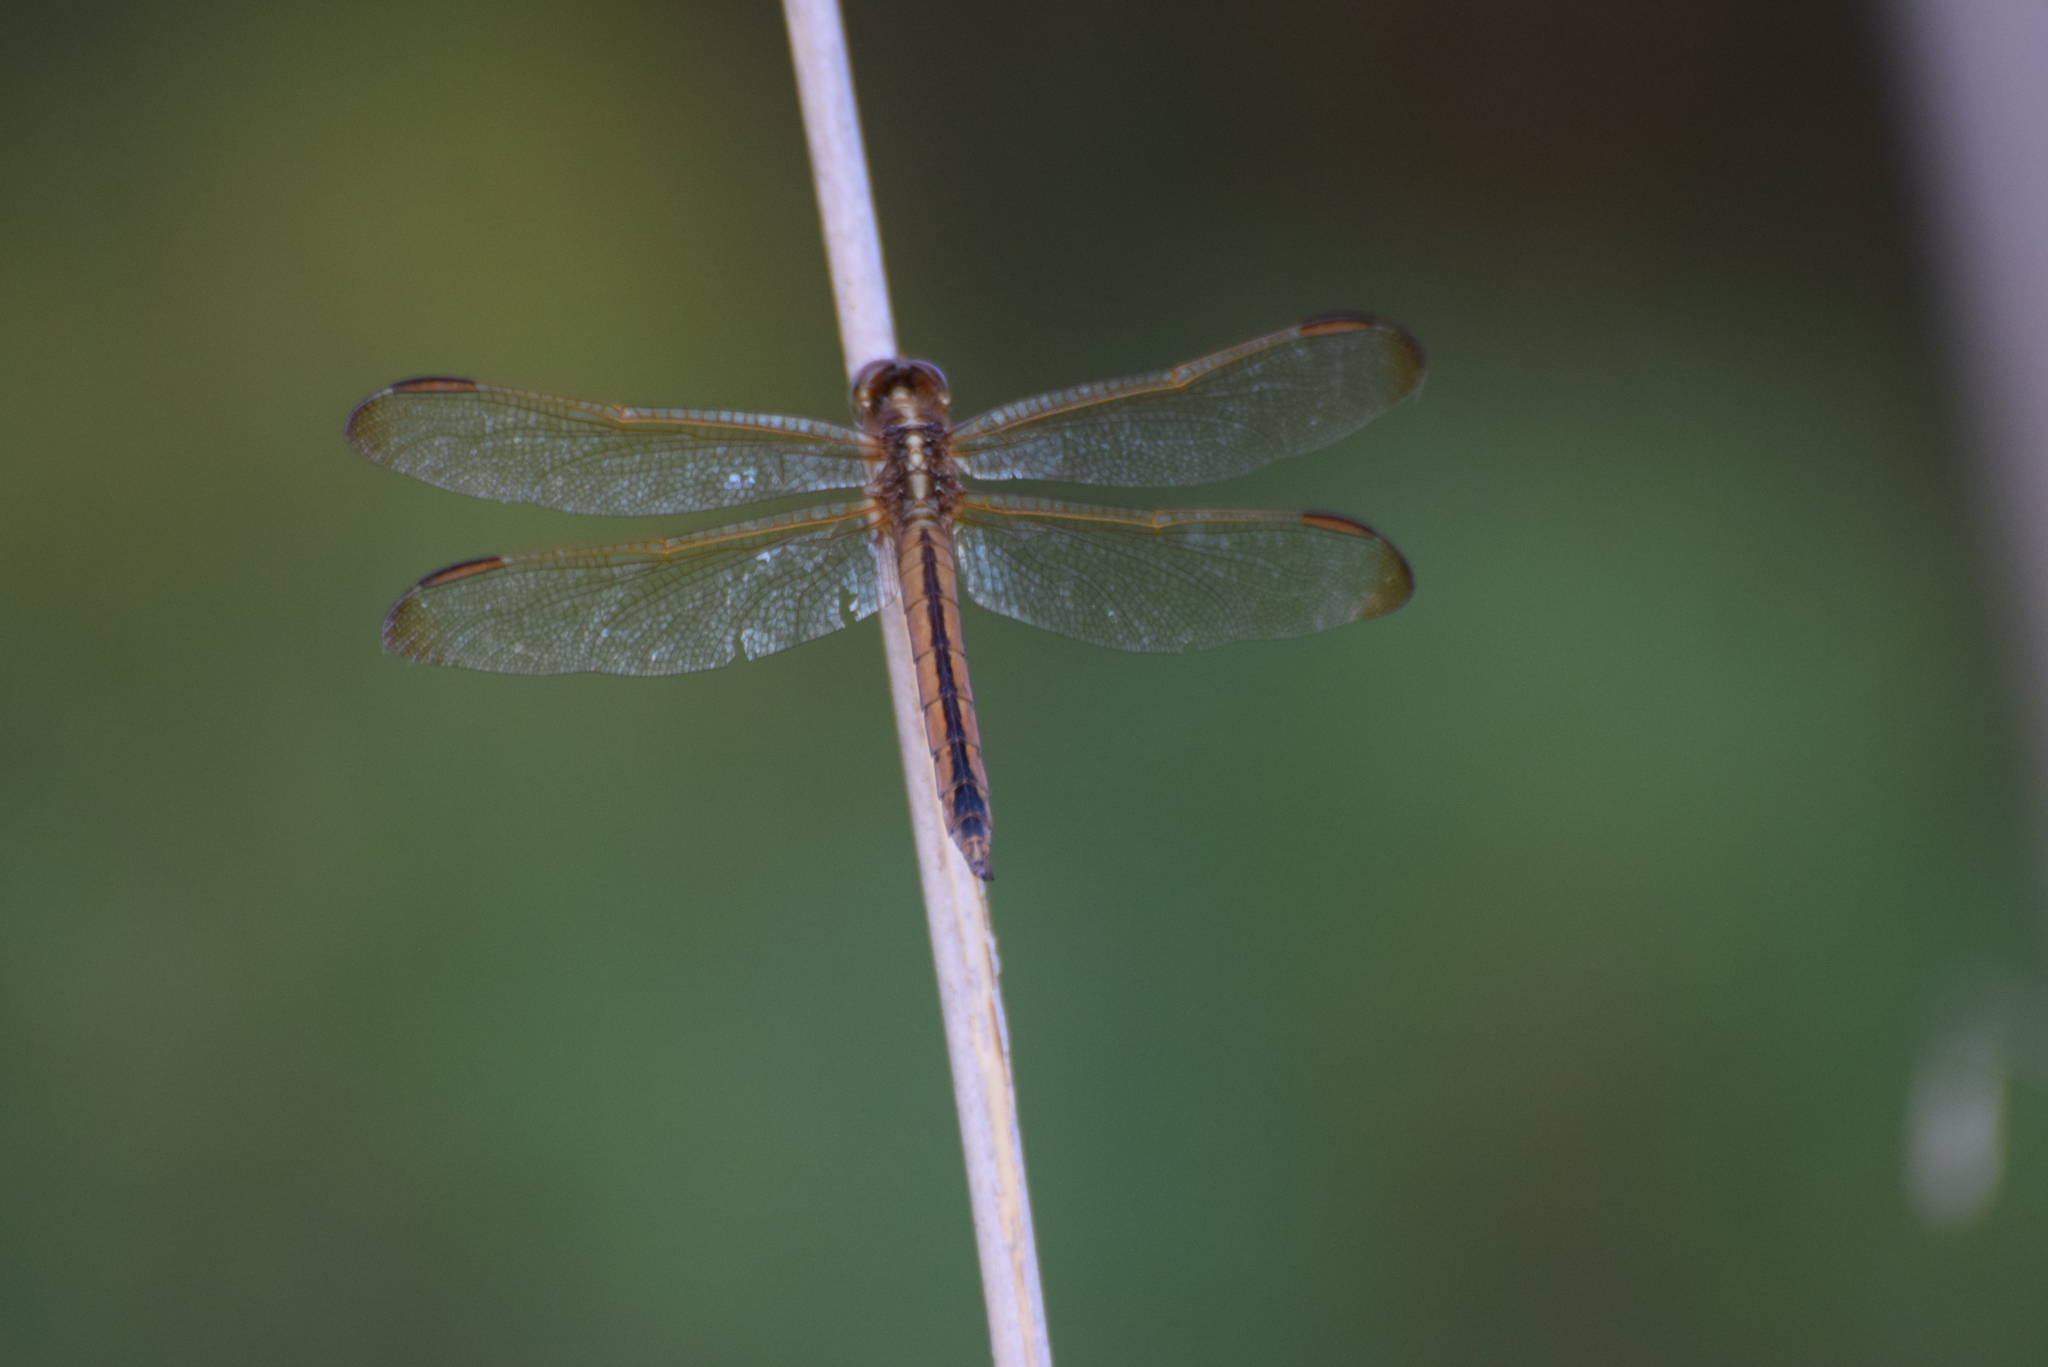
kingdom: Animalia
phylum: Arthropoda
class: Insecta
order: Odonata
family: Libellulidae
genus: Libellula
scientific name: Libellula needhami
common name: Needham's skimmer
